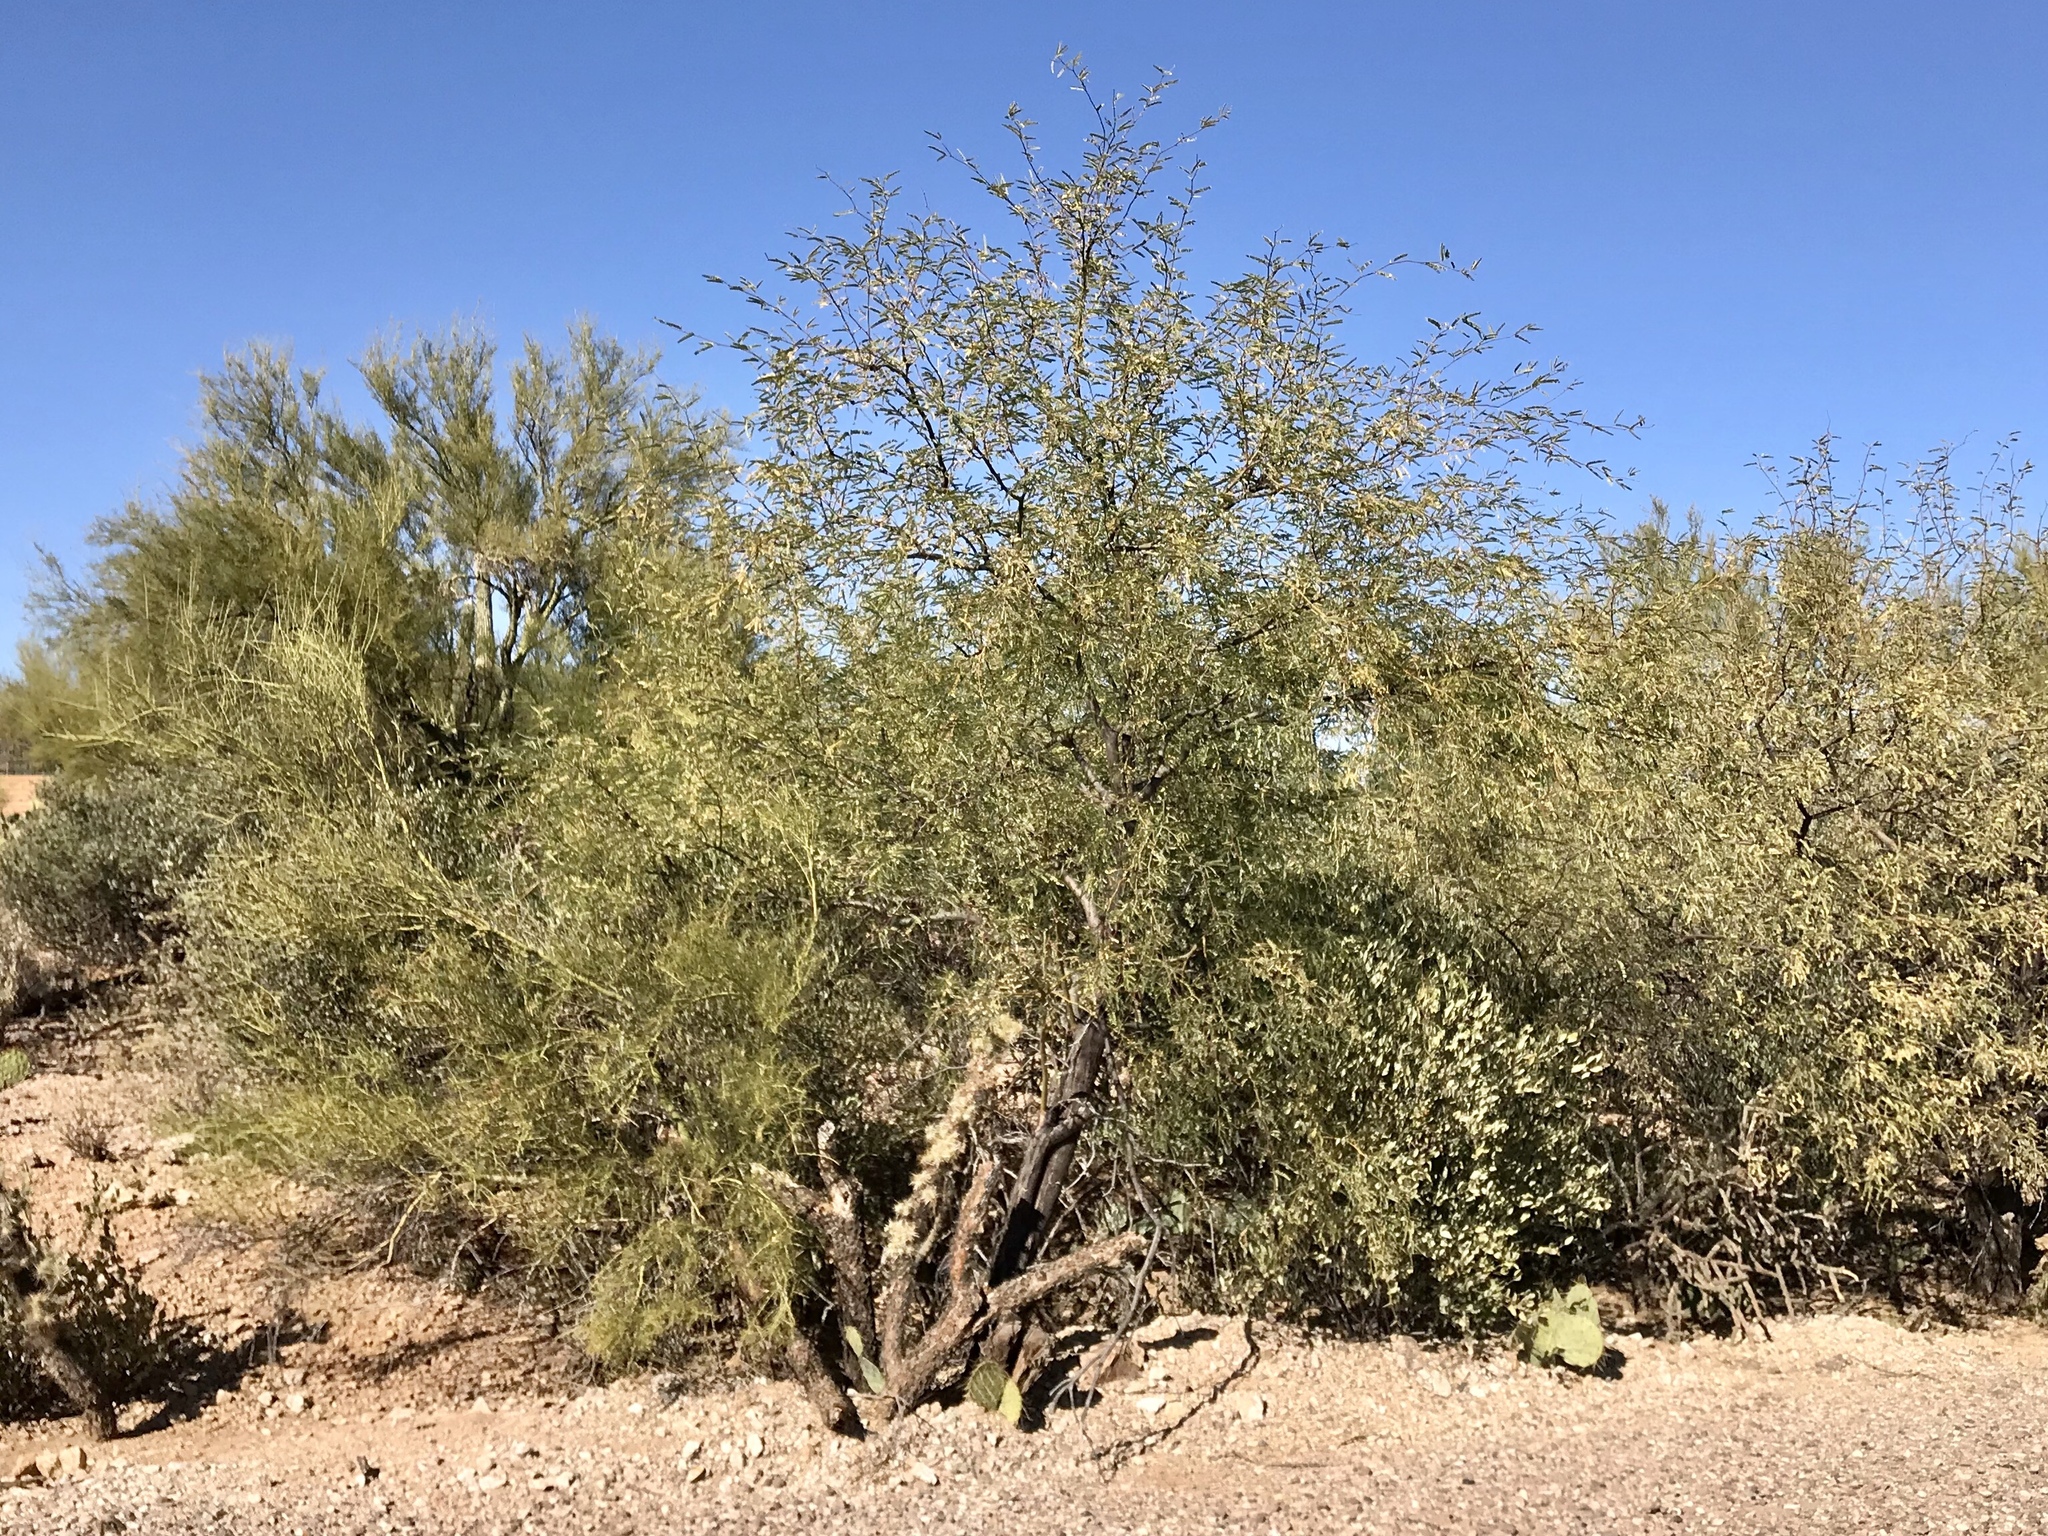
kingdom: Plantae
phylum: Tracheophyta
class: Magnoliopsida
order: Fabales
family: Fabaceae
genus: Prosopis
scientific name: Prosopis velutina
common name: Velvet mesquite
